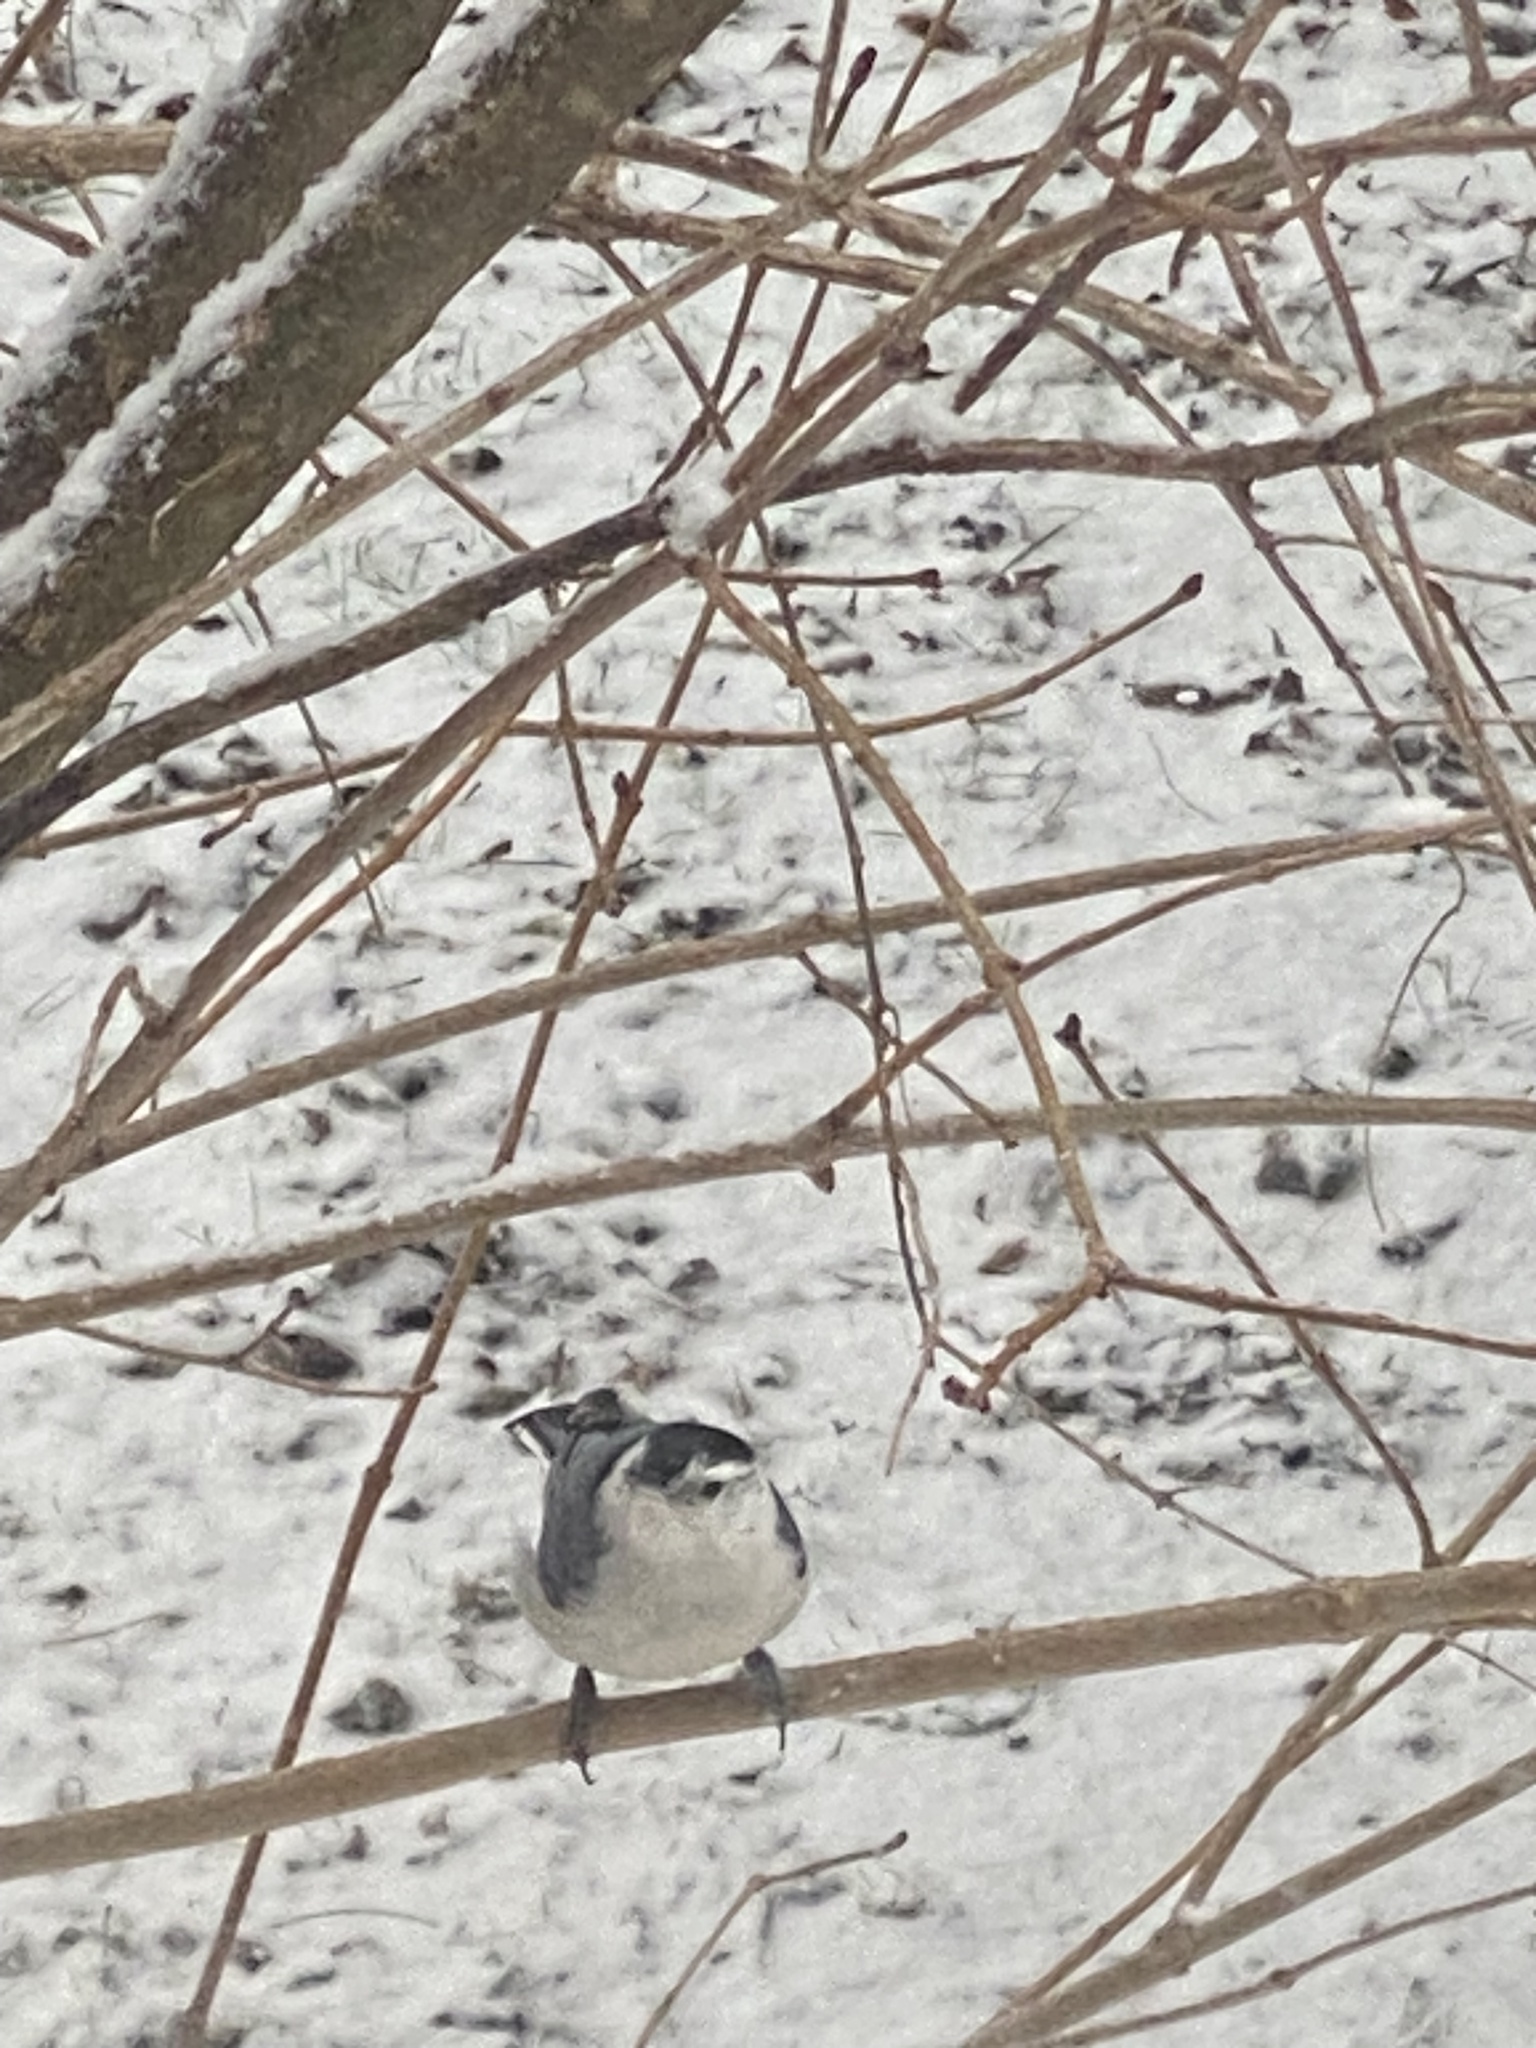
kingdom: Animalia
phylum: Chordata
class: Aves
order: Passeriformes
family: Sittidae
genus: Sitta
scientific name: Sitta carolinensis
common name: White-breasted nuthatch
